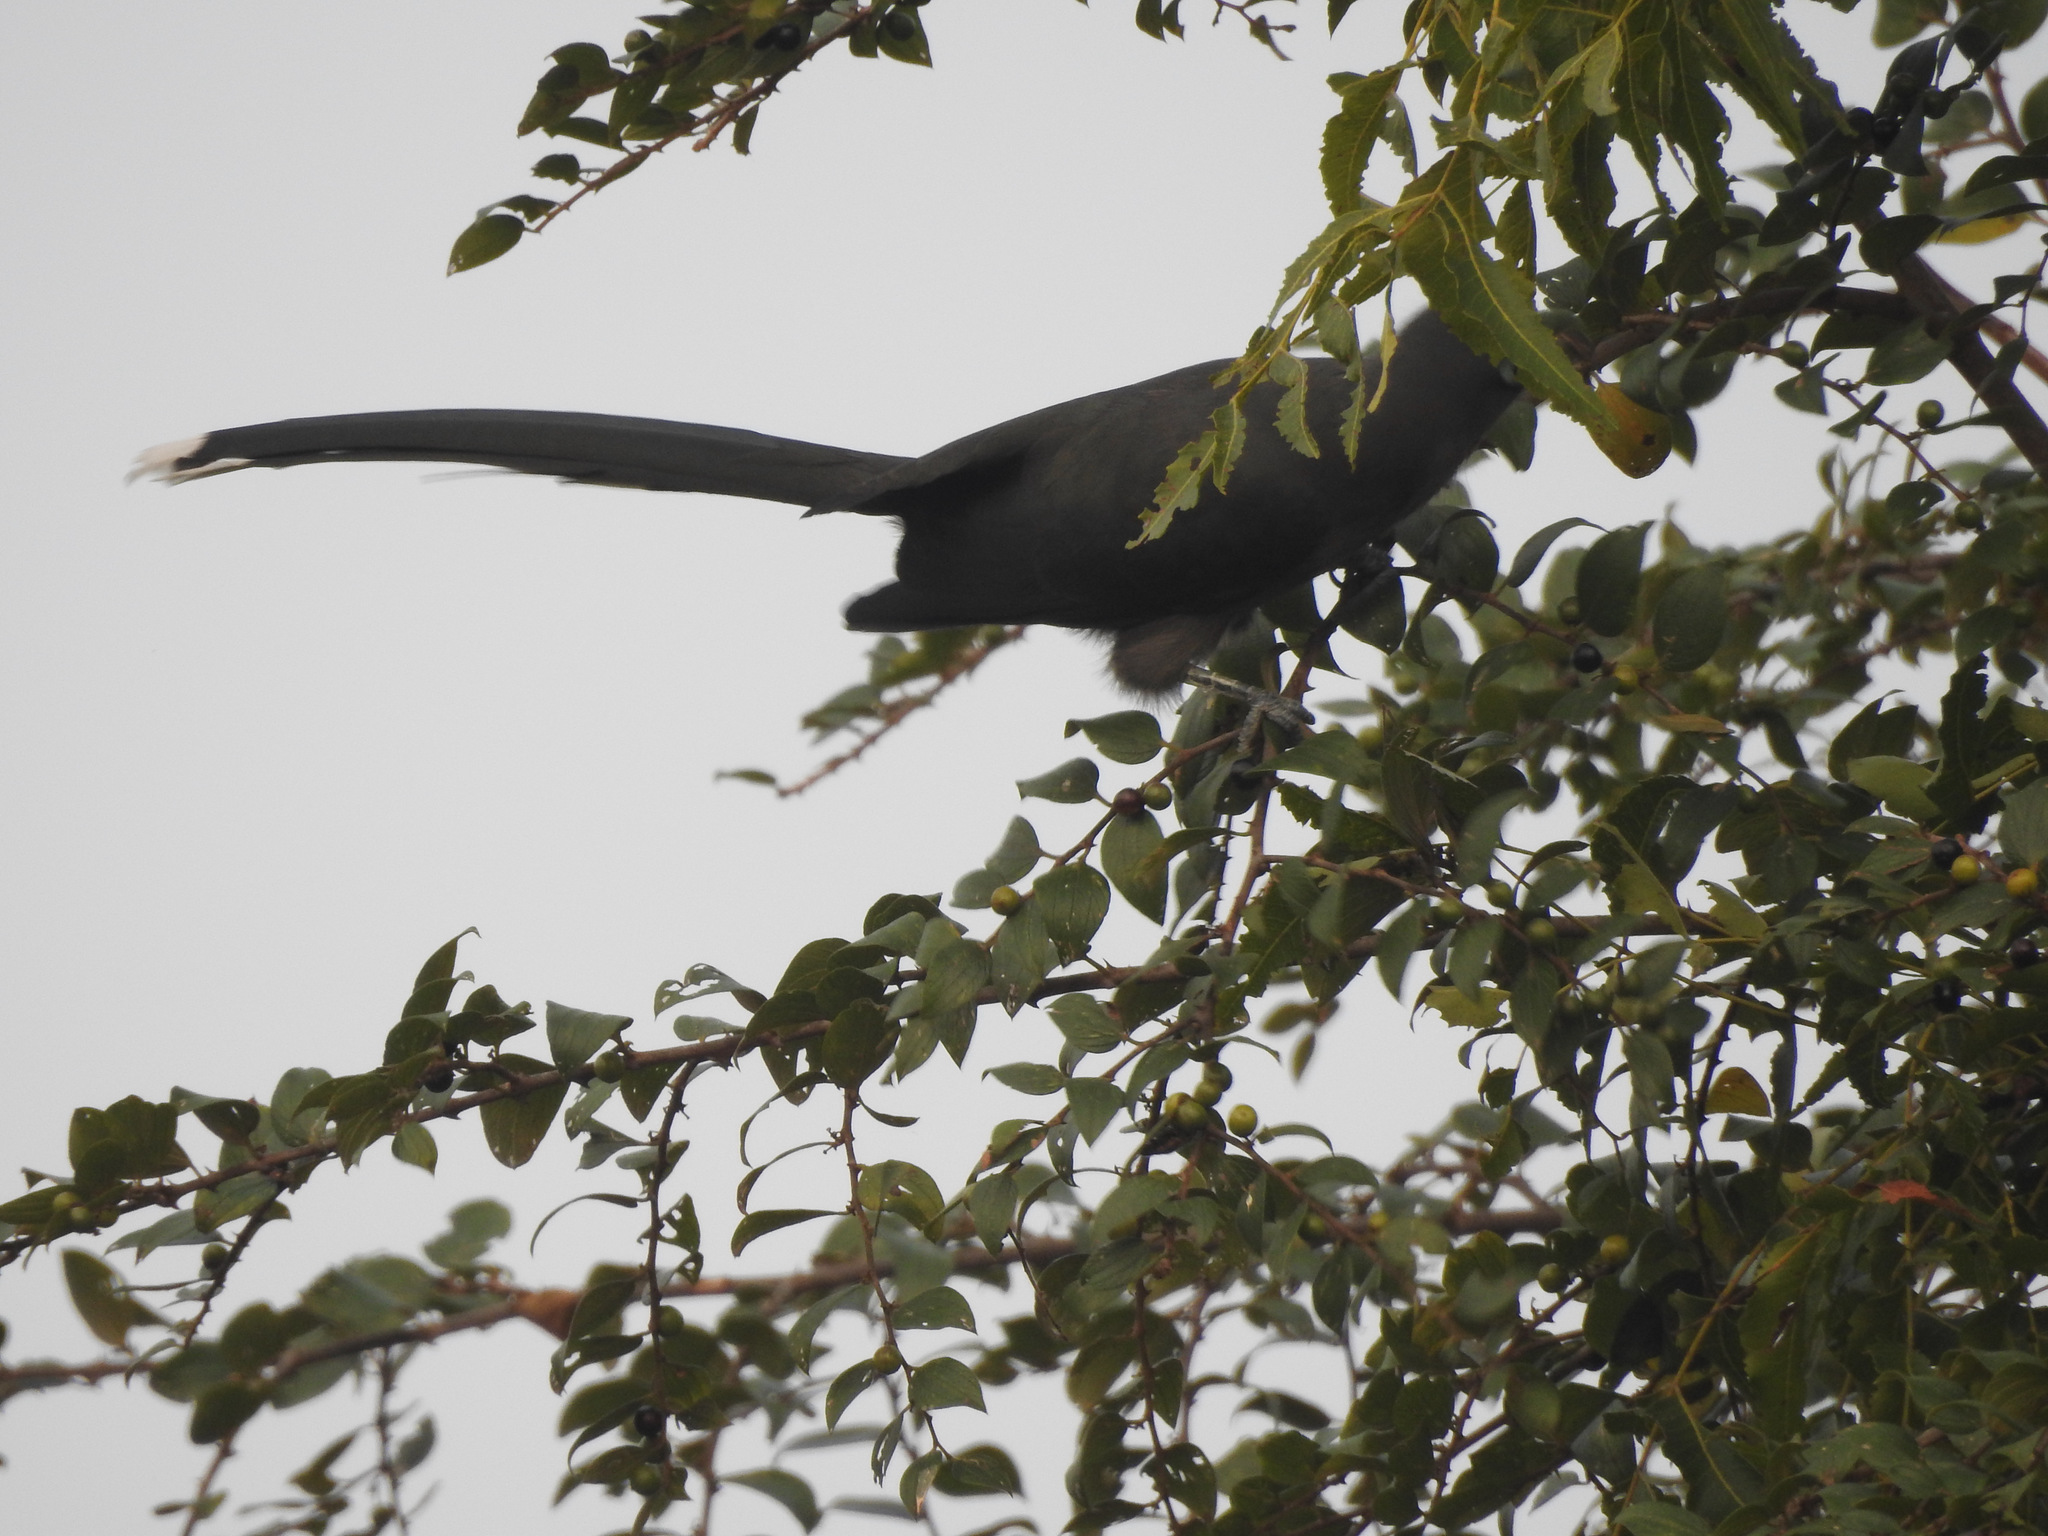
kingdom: Animalia
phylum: Chordata
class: Aves
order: Cuculiformes
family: Cuculidae
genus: Rhopodytes
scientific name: Rhopodytes viridirostris
